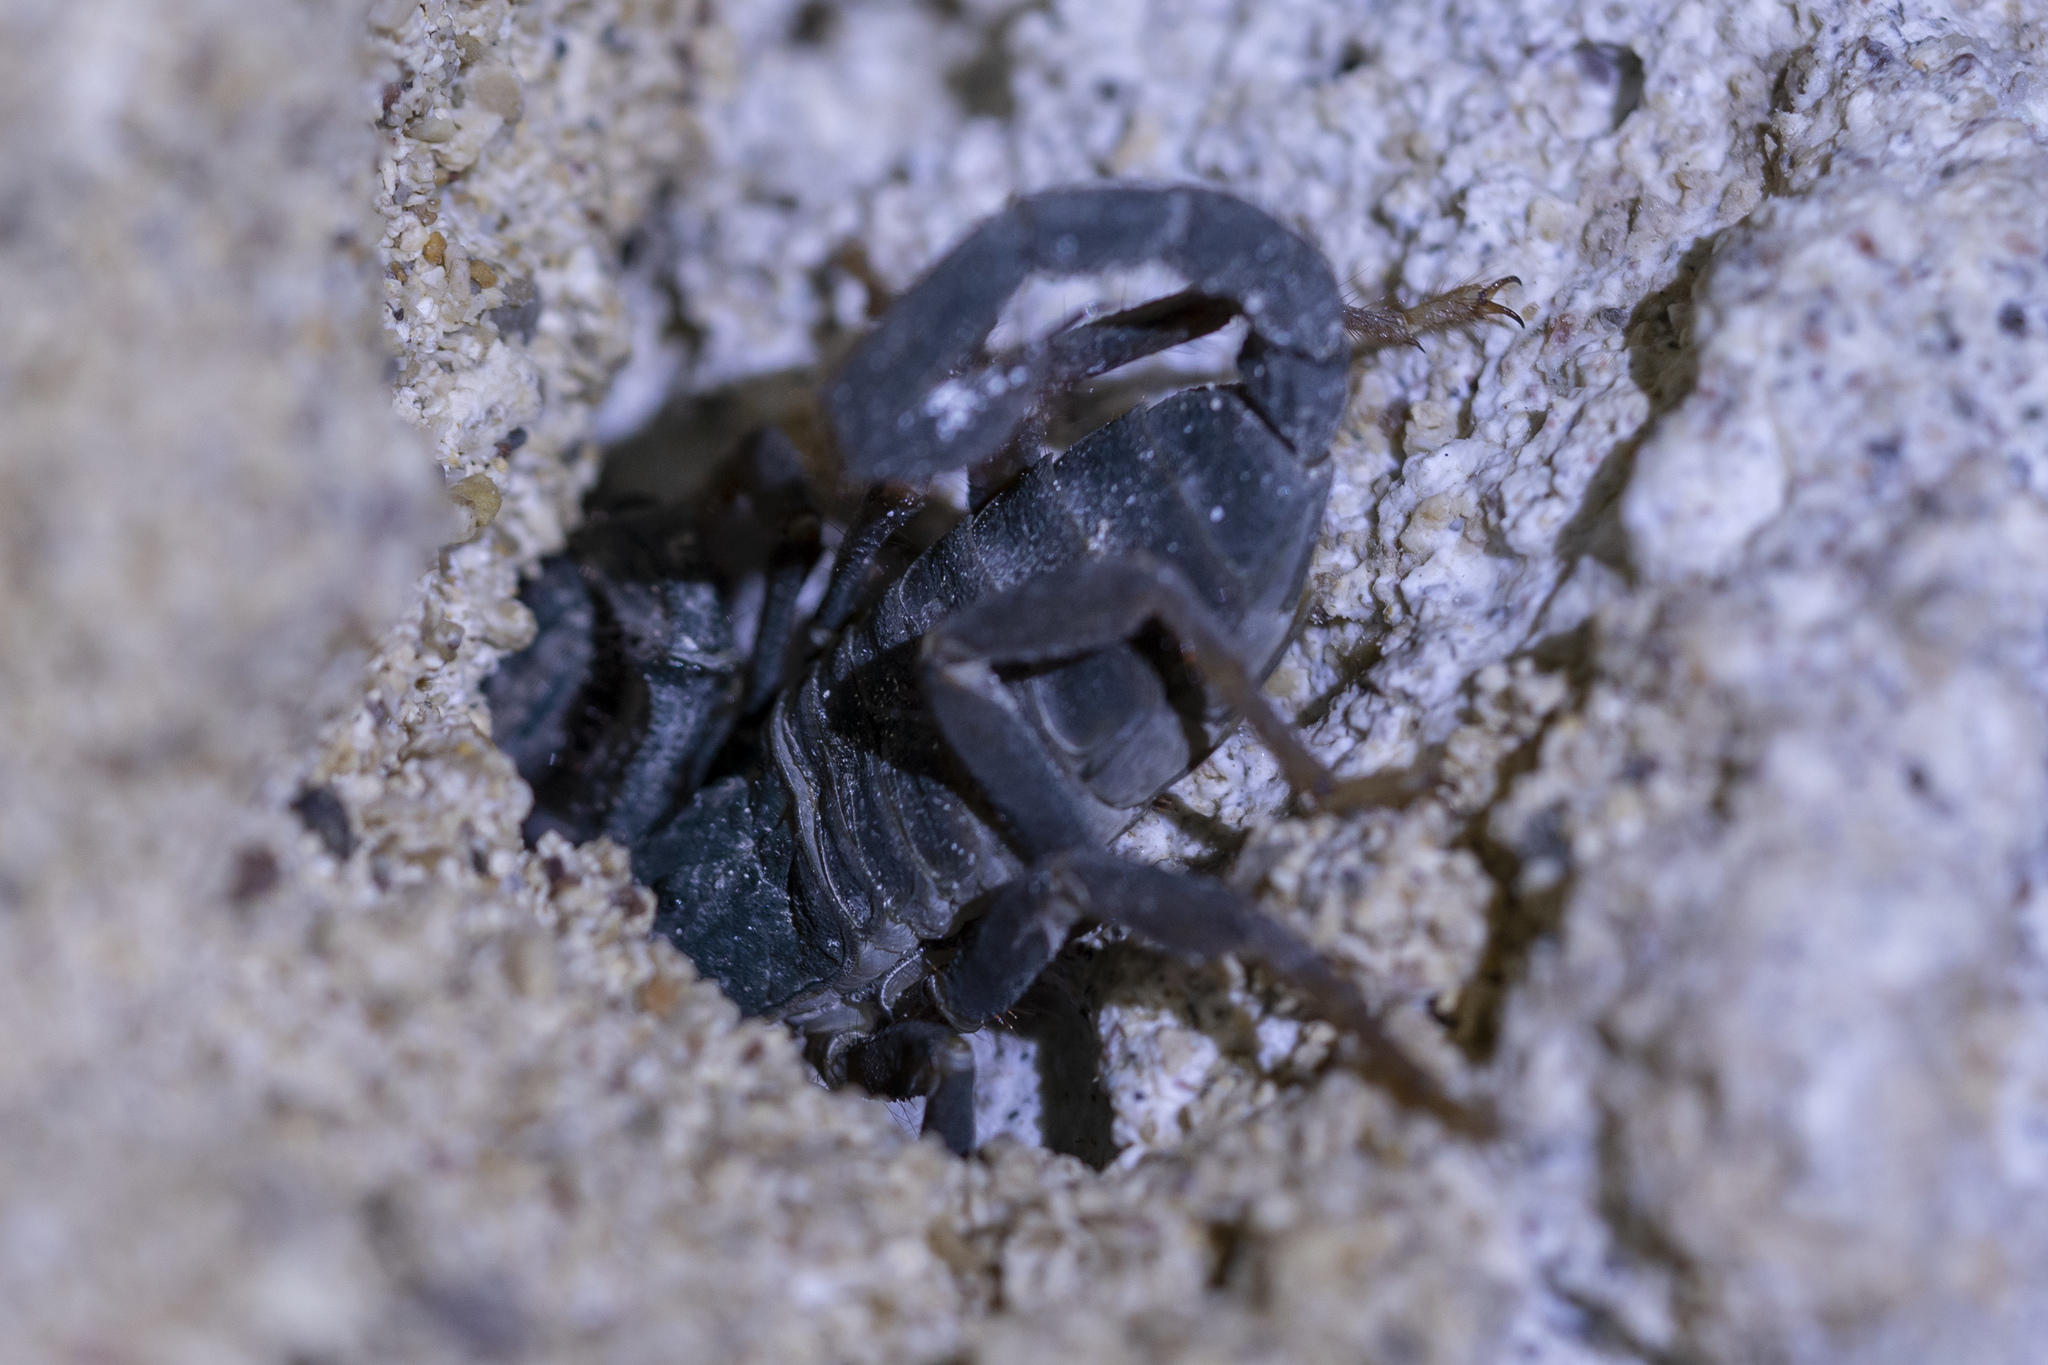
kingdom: Animalia
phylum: Arthropoda
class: Arachnida
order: Scorpiones
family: Iuridae
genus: Letoiurus
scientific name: Letoiurus rhodiensis
